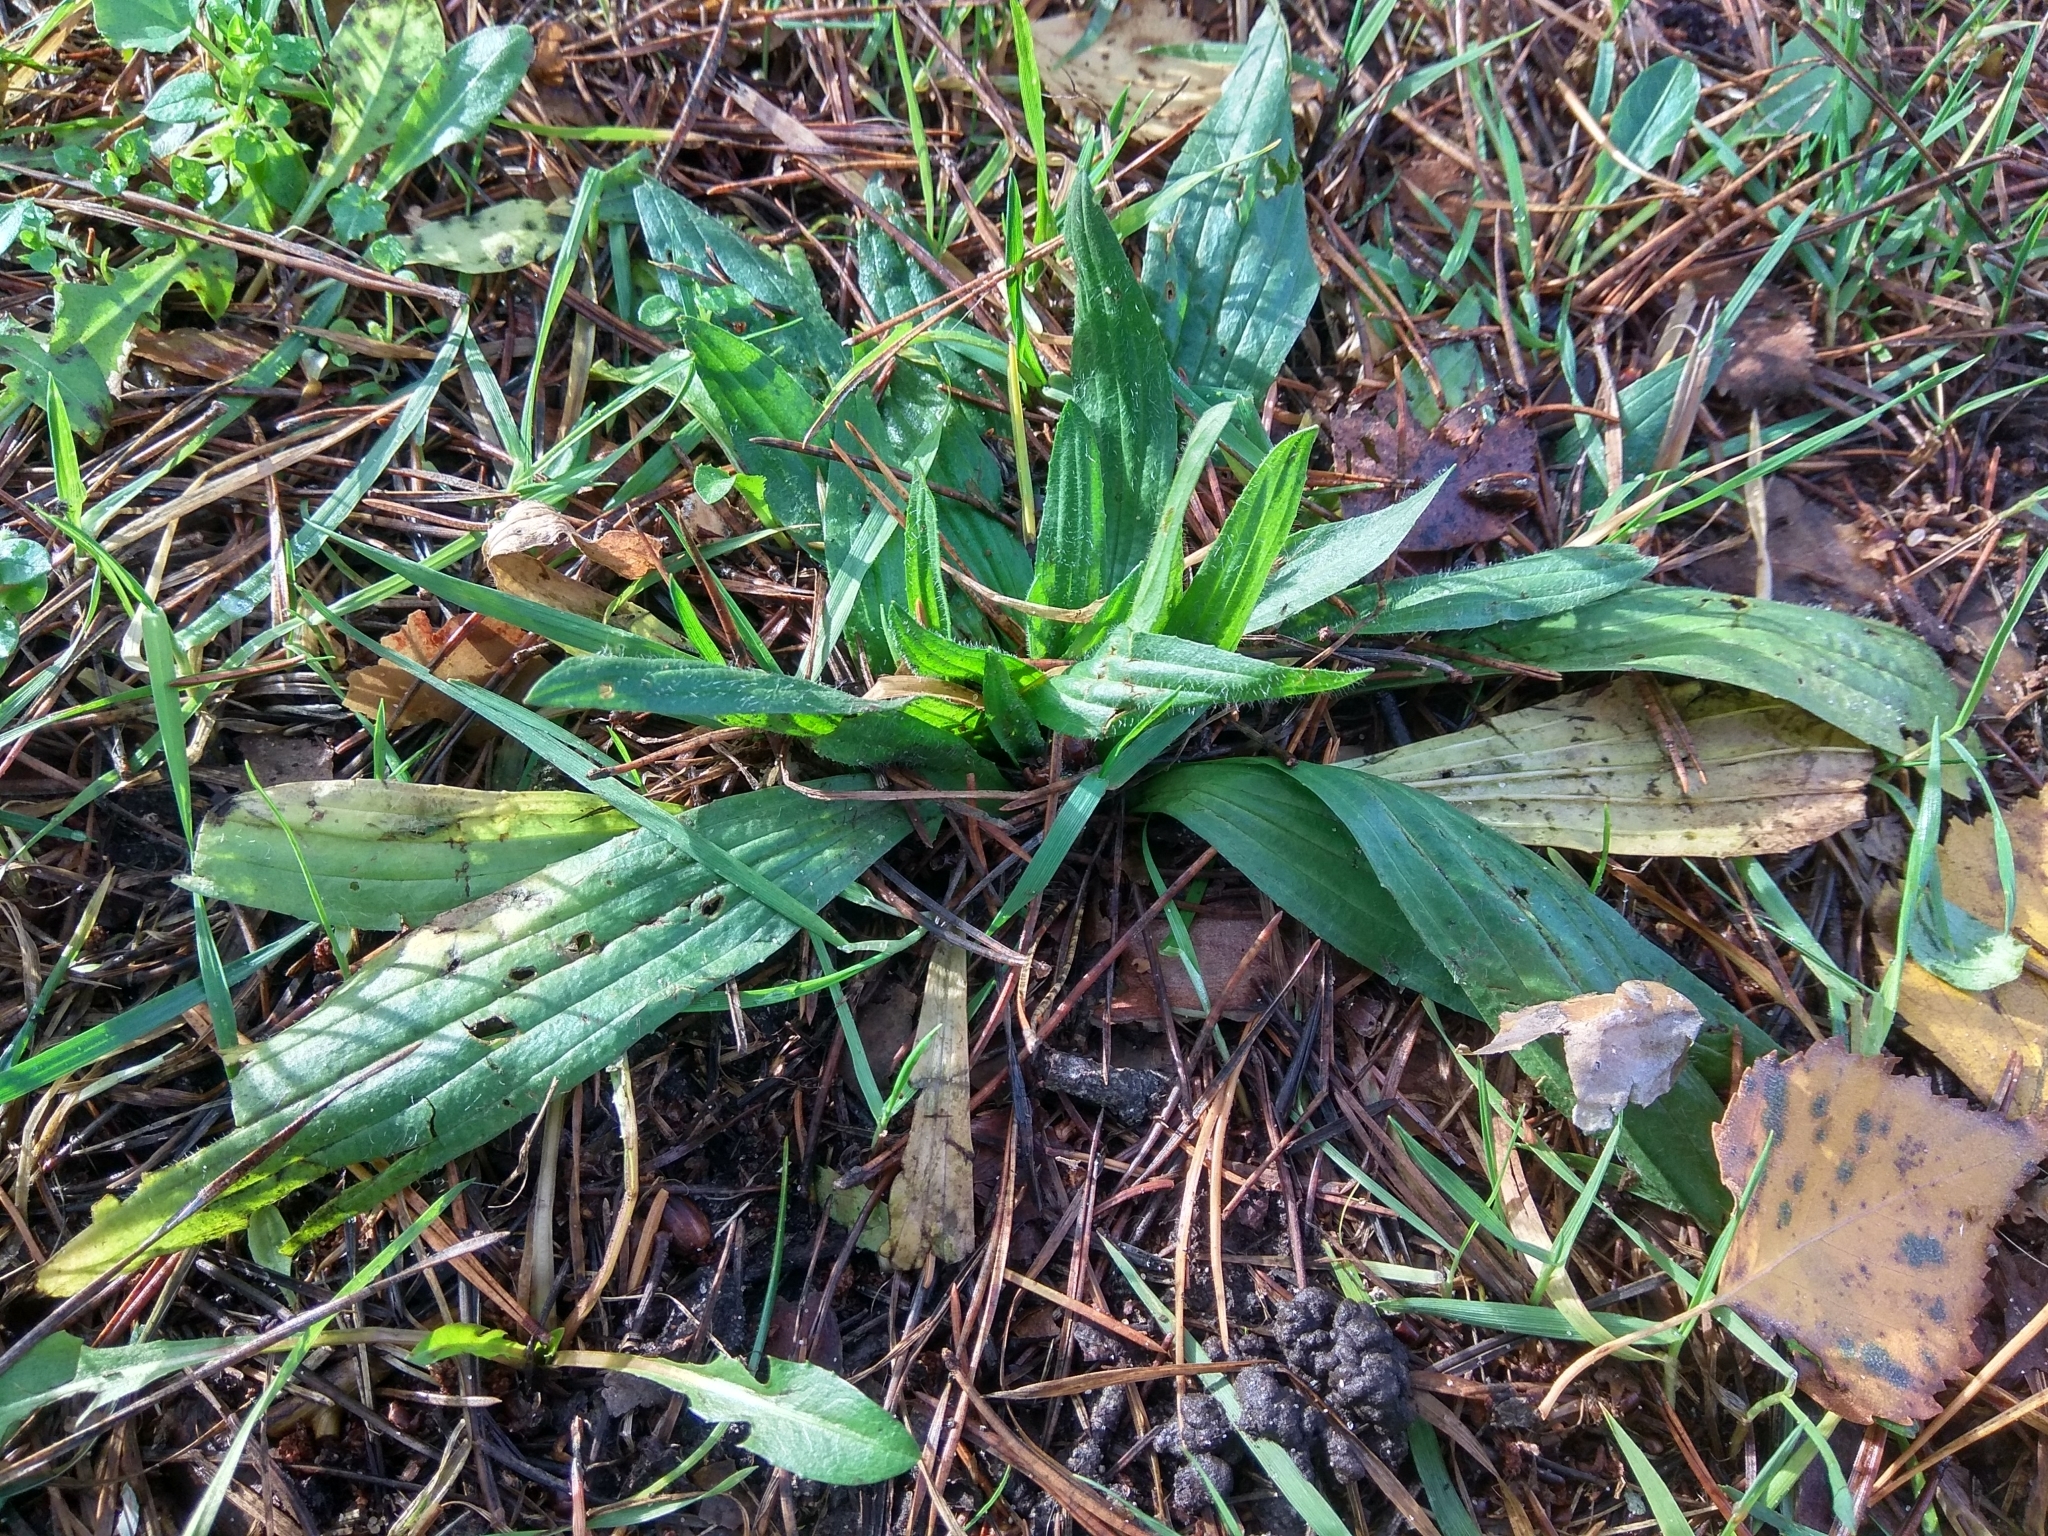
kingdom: Plantae
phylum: Tracheophyta
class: Magnoliopsida
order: Lamiales
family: Plantaginaceae
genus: Plantago
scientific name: Plantago lanceolata
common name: Ribwort plantain
